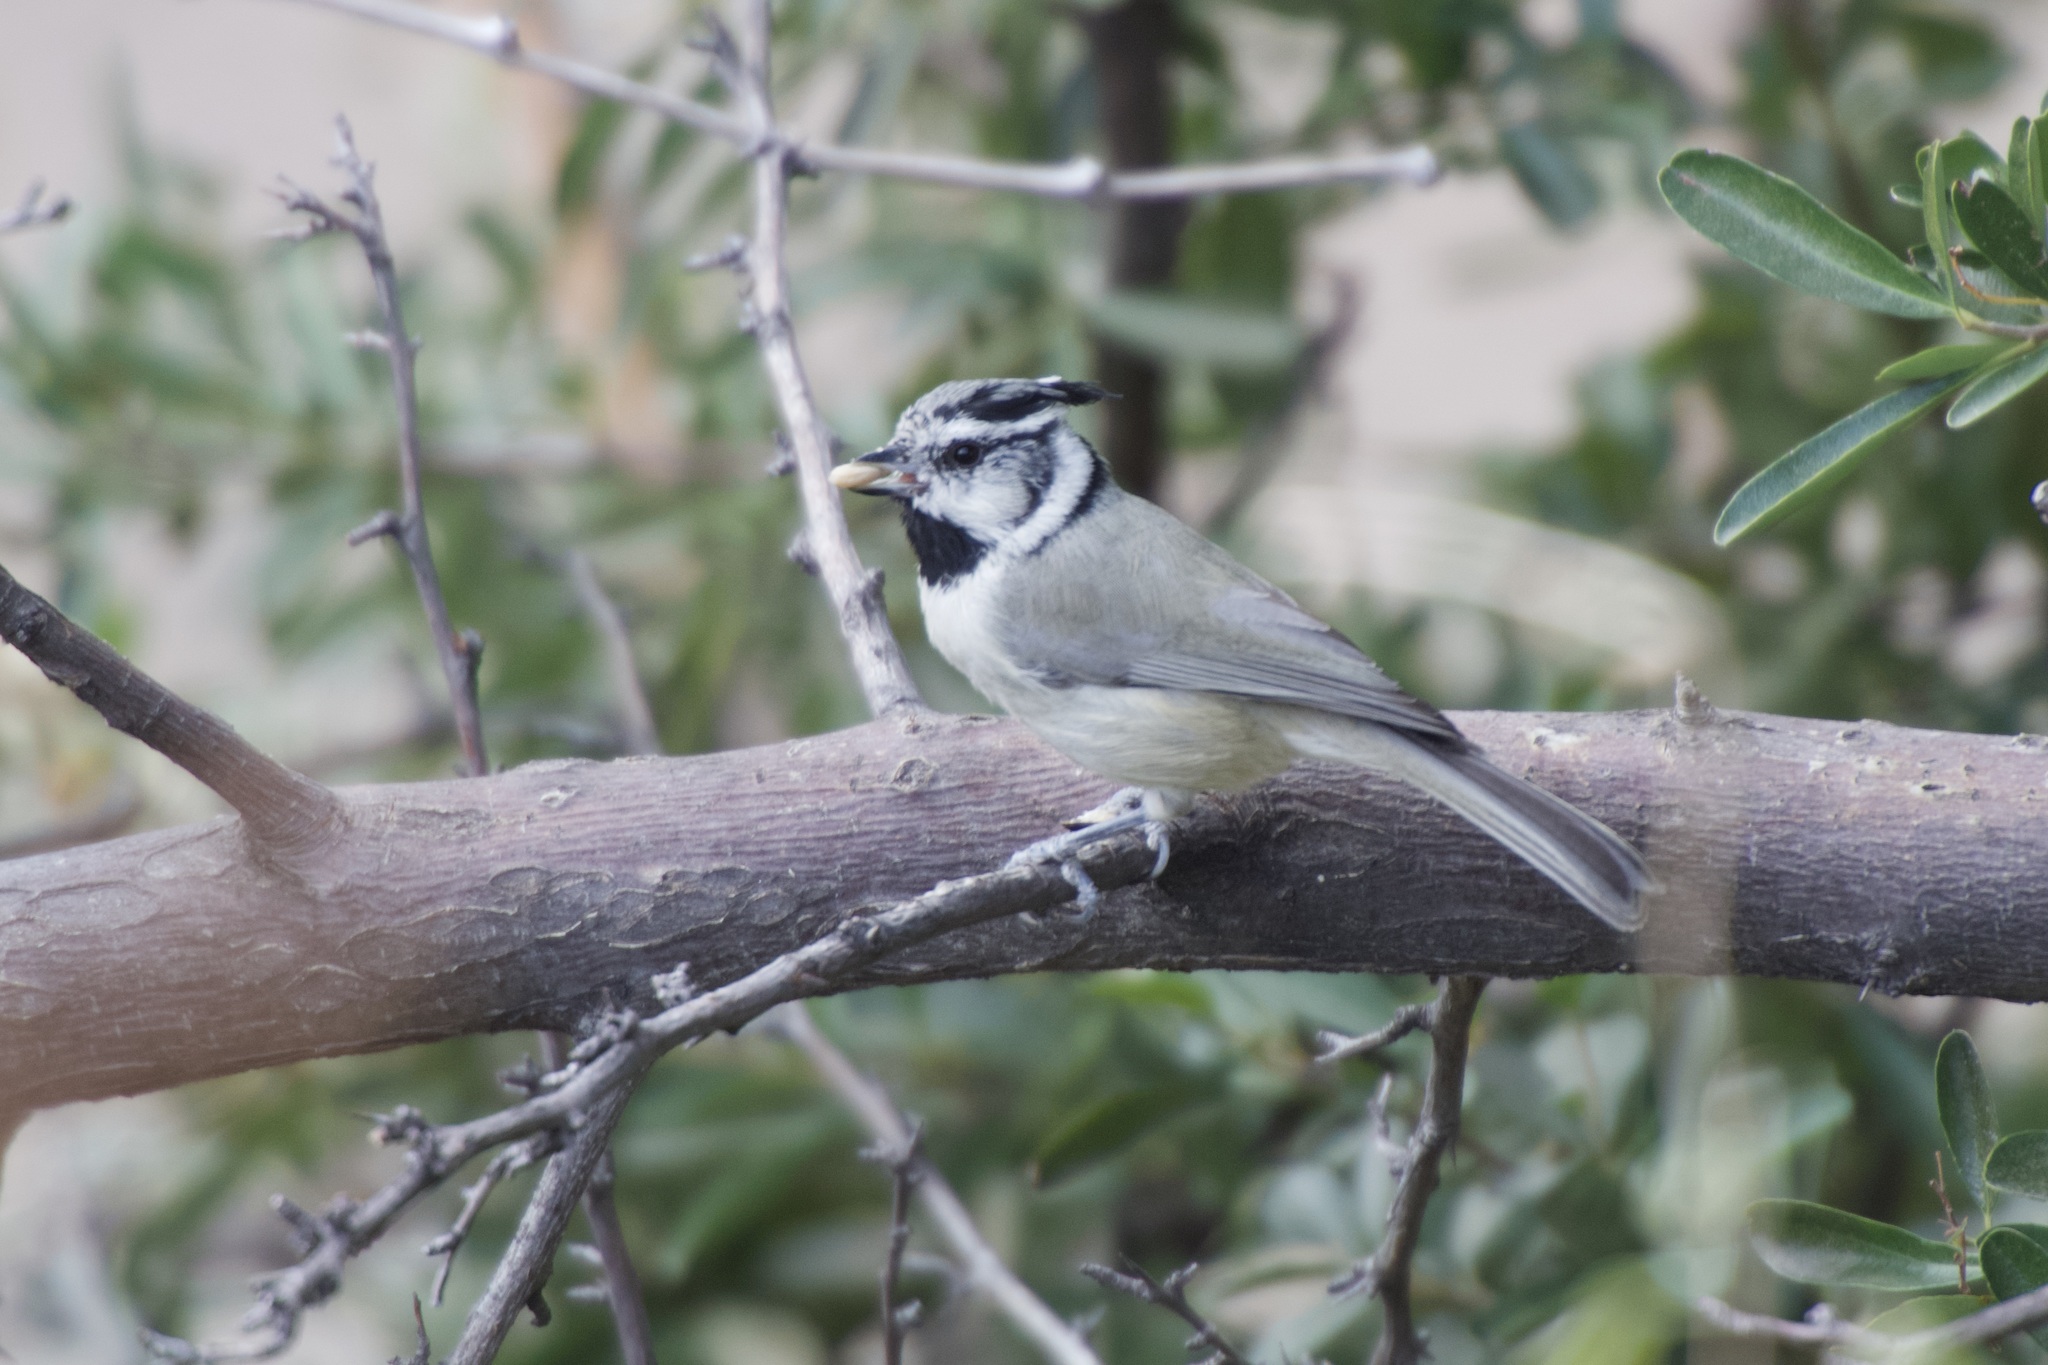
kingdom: Animalia
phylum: Chordata
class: Aves
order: Passeriformes
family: Paridae
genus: Baeolophus
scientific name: Baeolophus wollweberi
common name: Bridled titmouse
